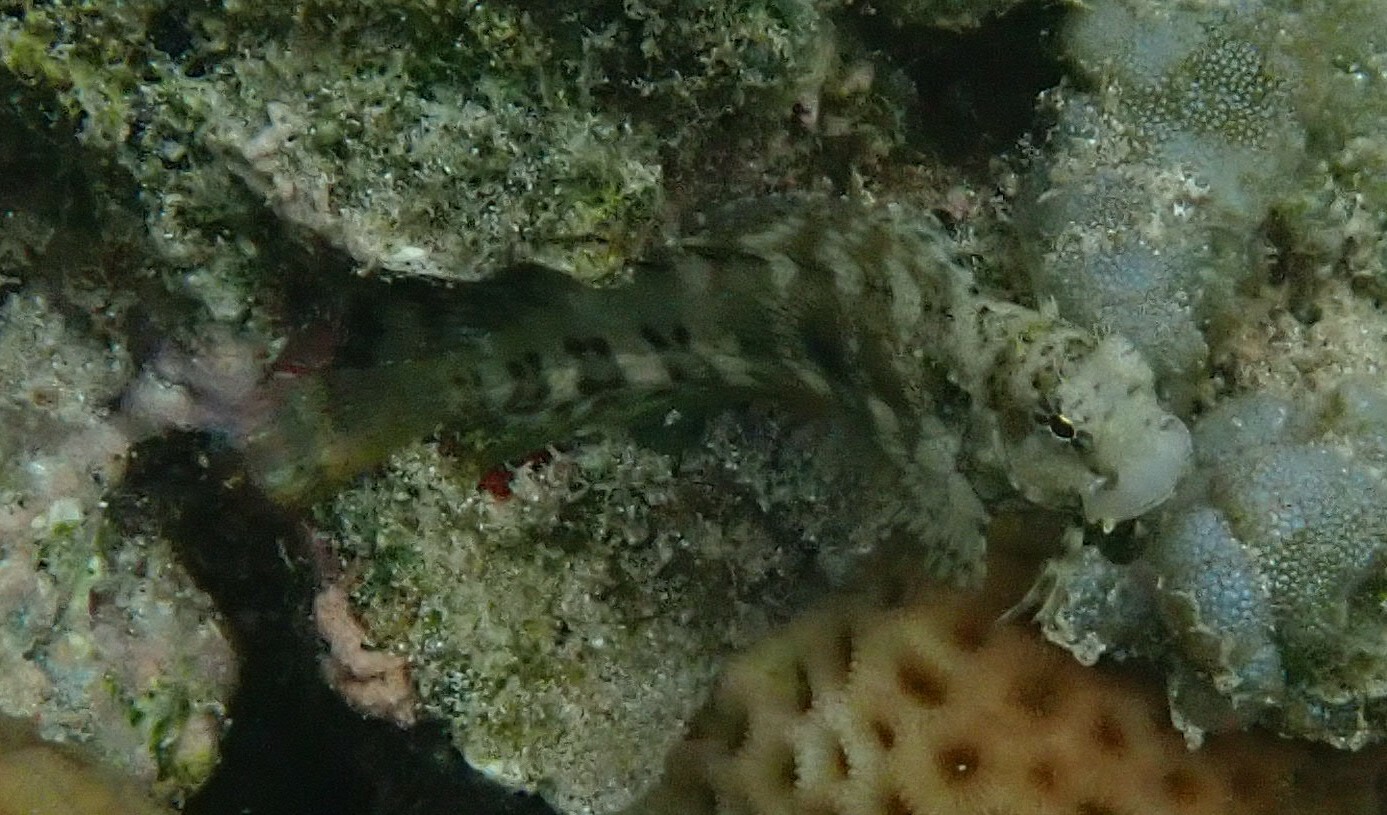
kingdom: Animalia
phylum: Chordata
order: Perciformes
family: Blenniidae
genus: Salarias
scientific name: Salarias fasciatus
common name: Jewelled blenny
